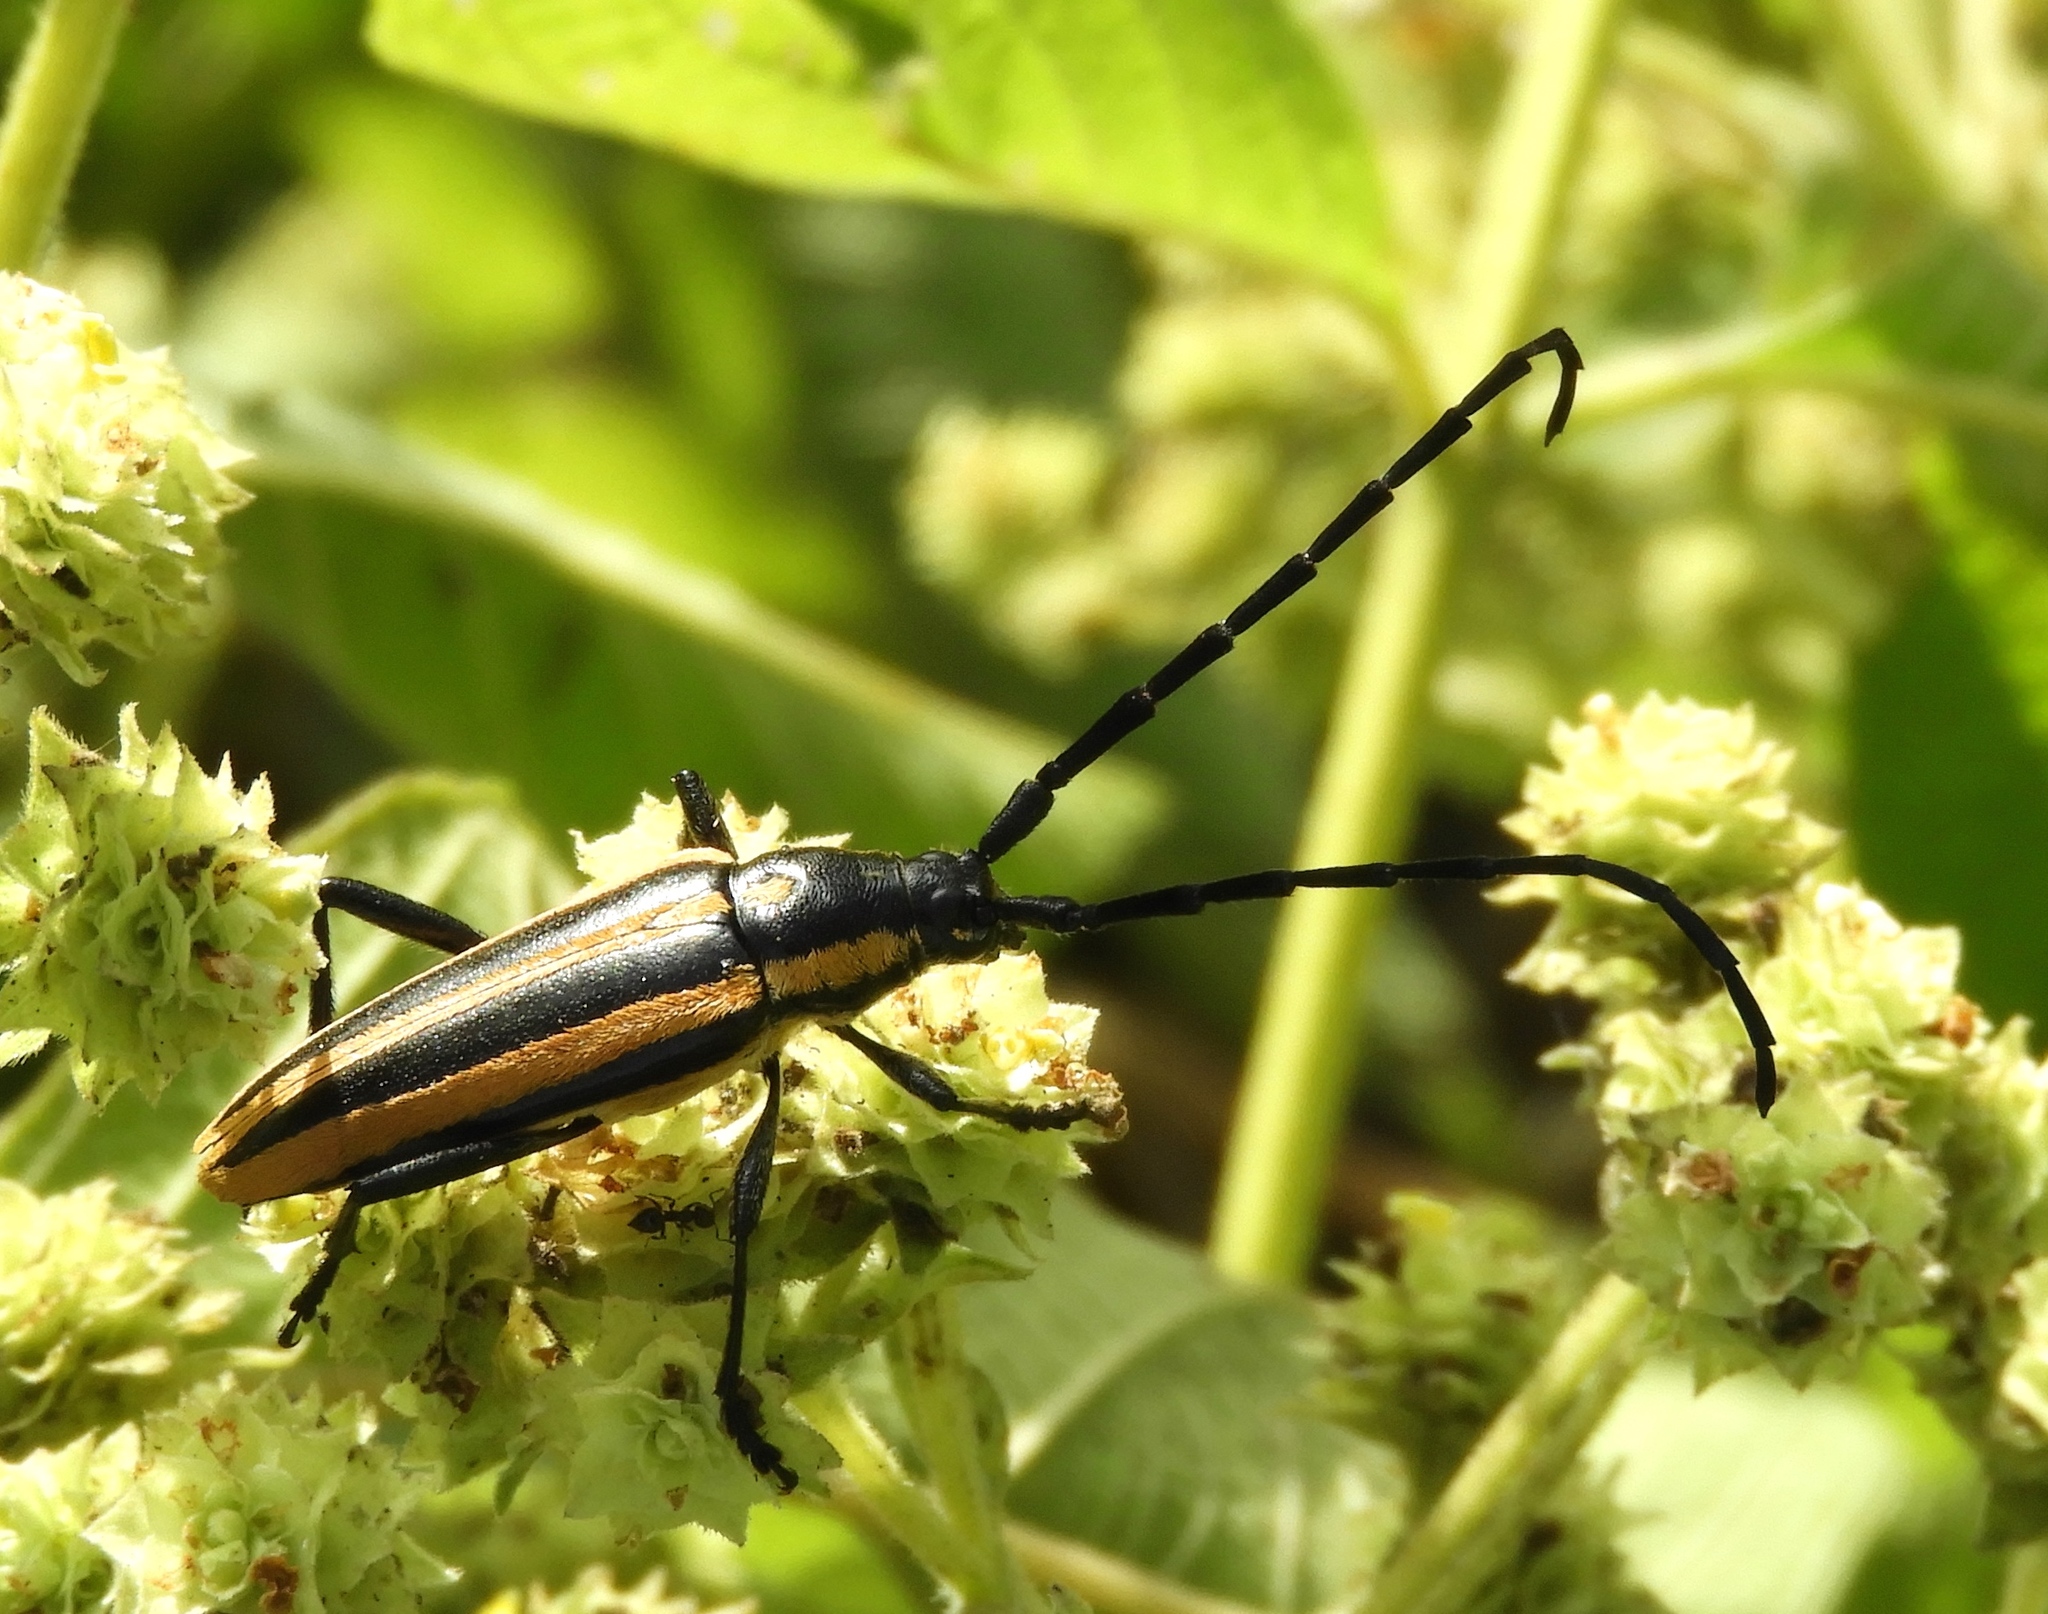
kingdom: Animalia
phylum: Arthropoda
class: Insecta
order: Coleoptera
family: Cerambycidae
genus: Sphaenothecus
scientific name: Sphaenothecus trilineatus
